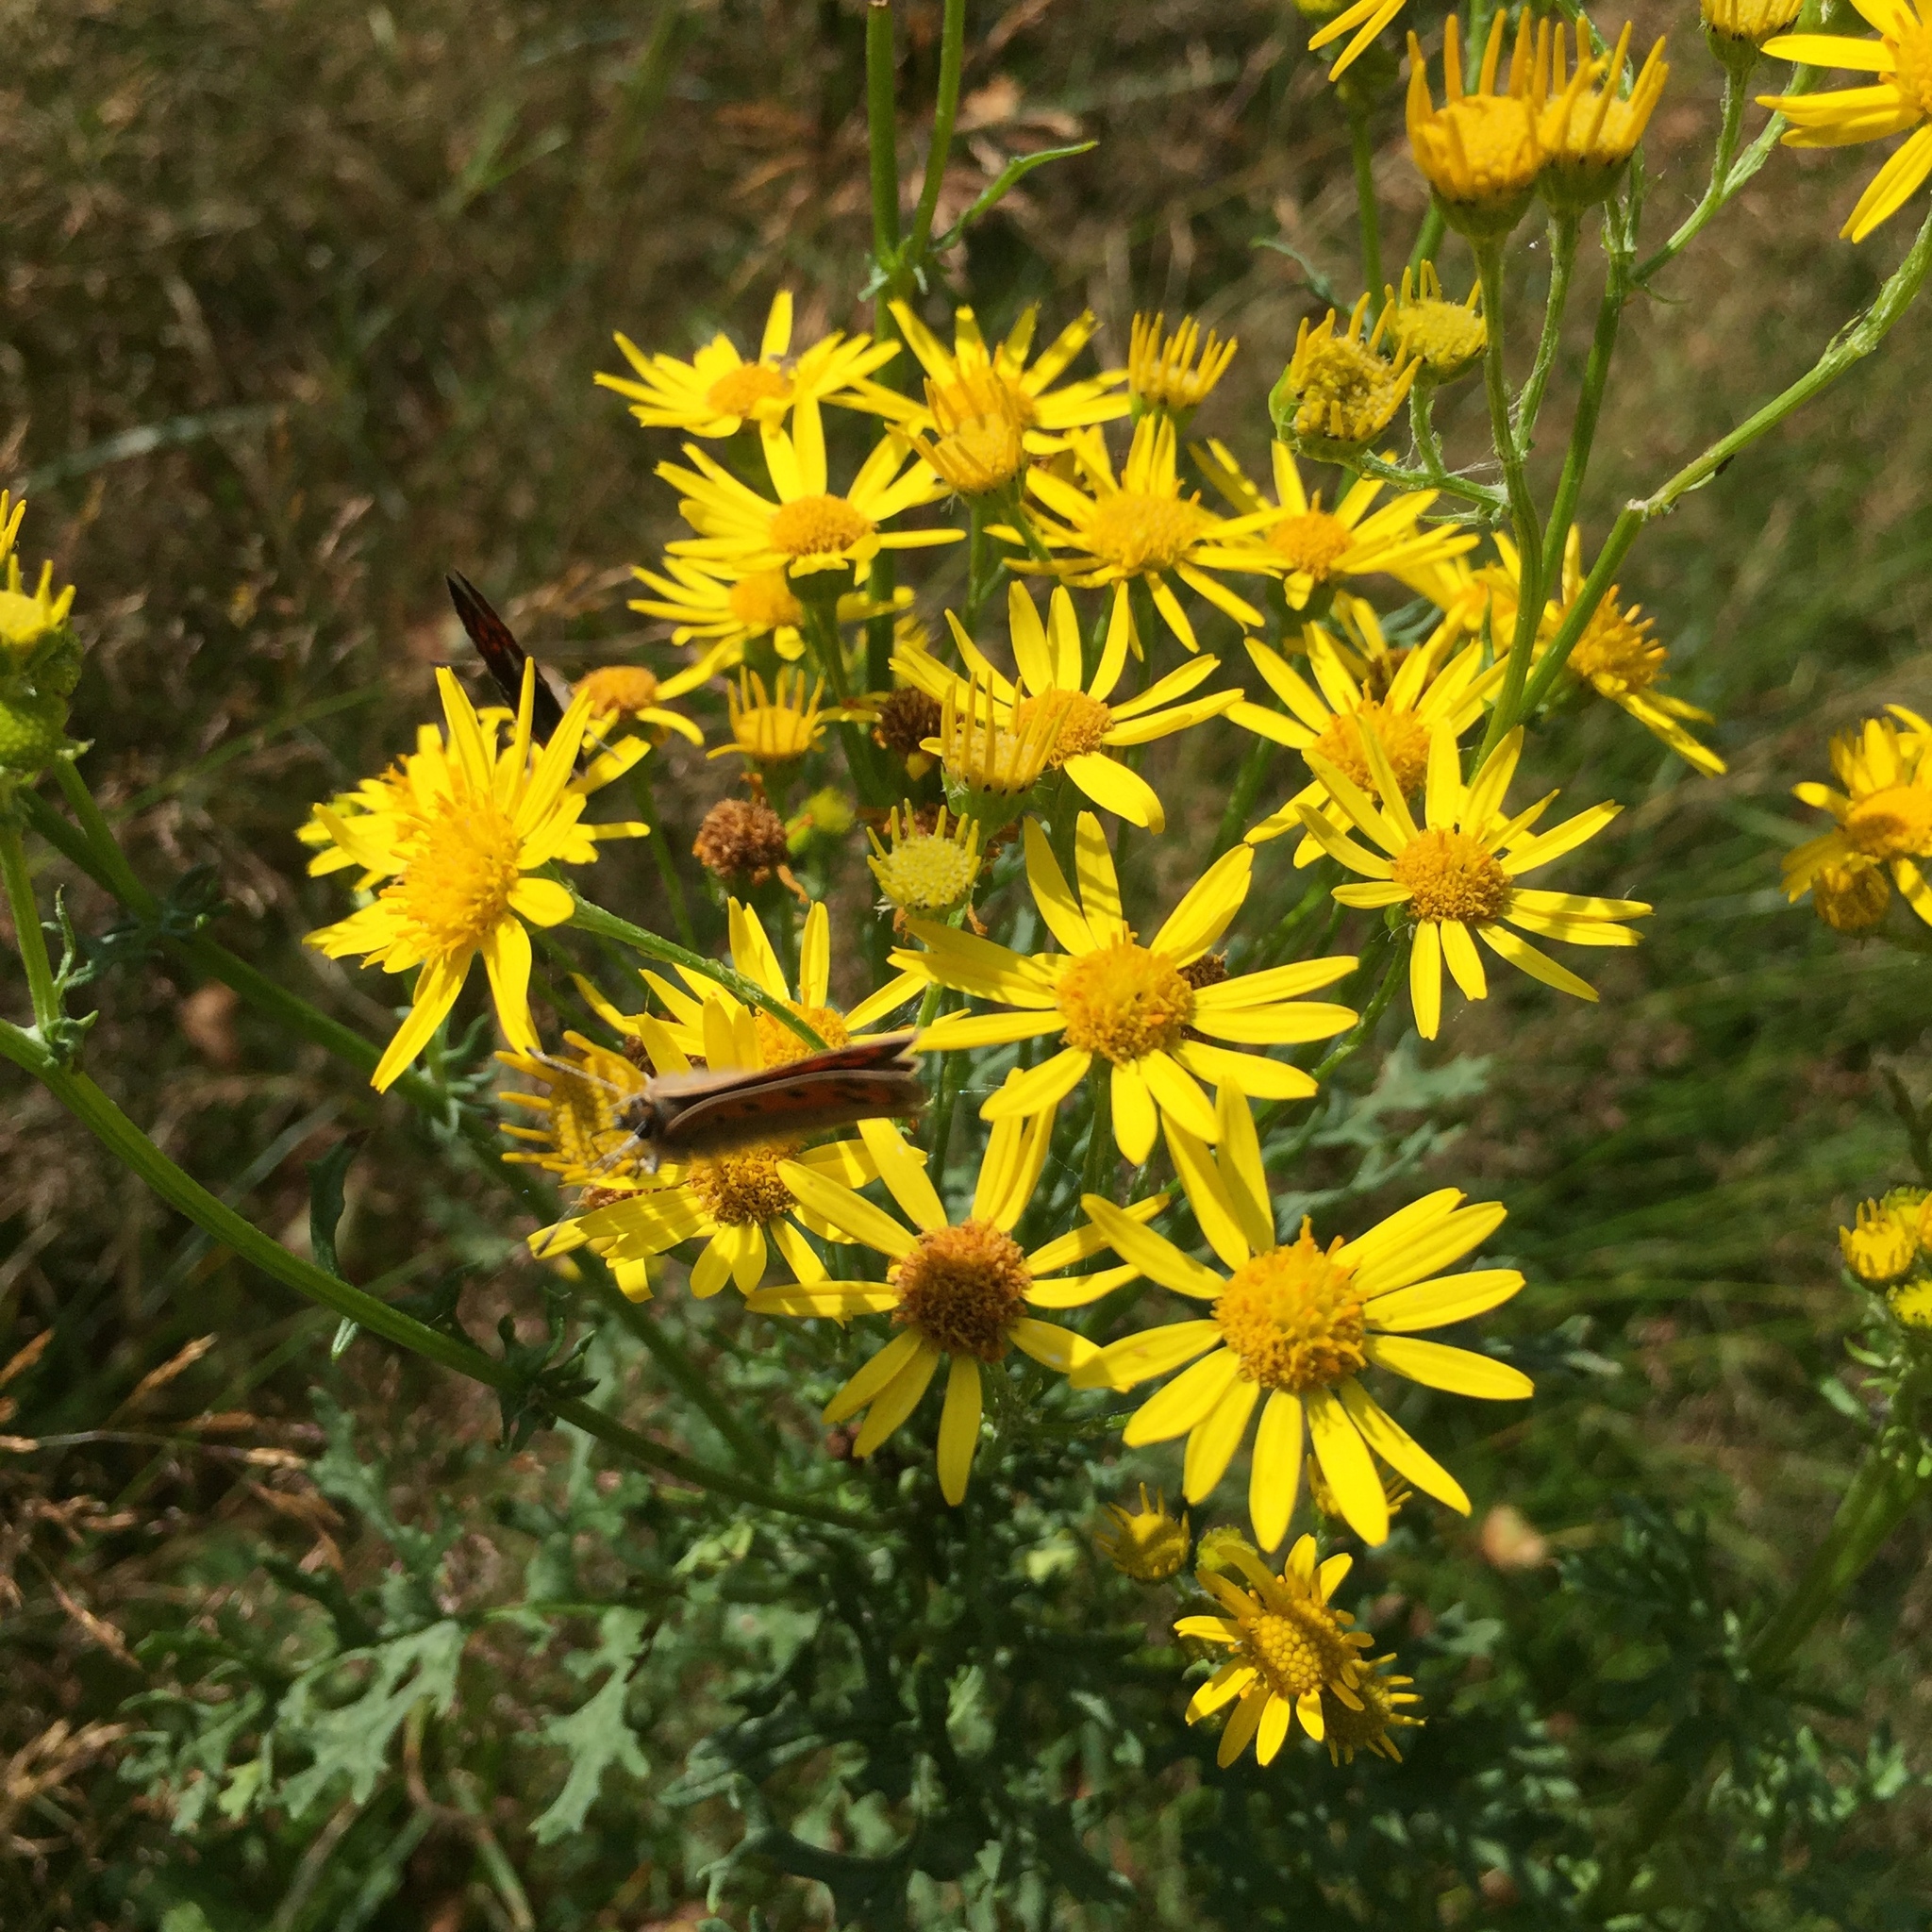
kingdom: Animalia
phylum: Arthropoda
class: Insecta
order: Lepidoptera
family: Lycaenidae
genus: Lycaena
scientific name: Lycaena phlaeas
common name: Small copper
